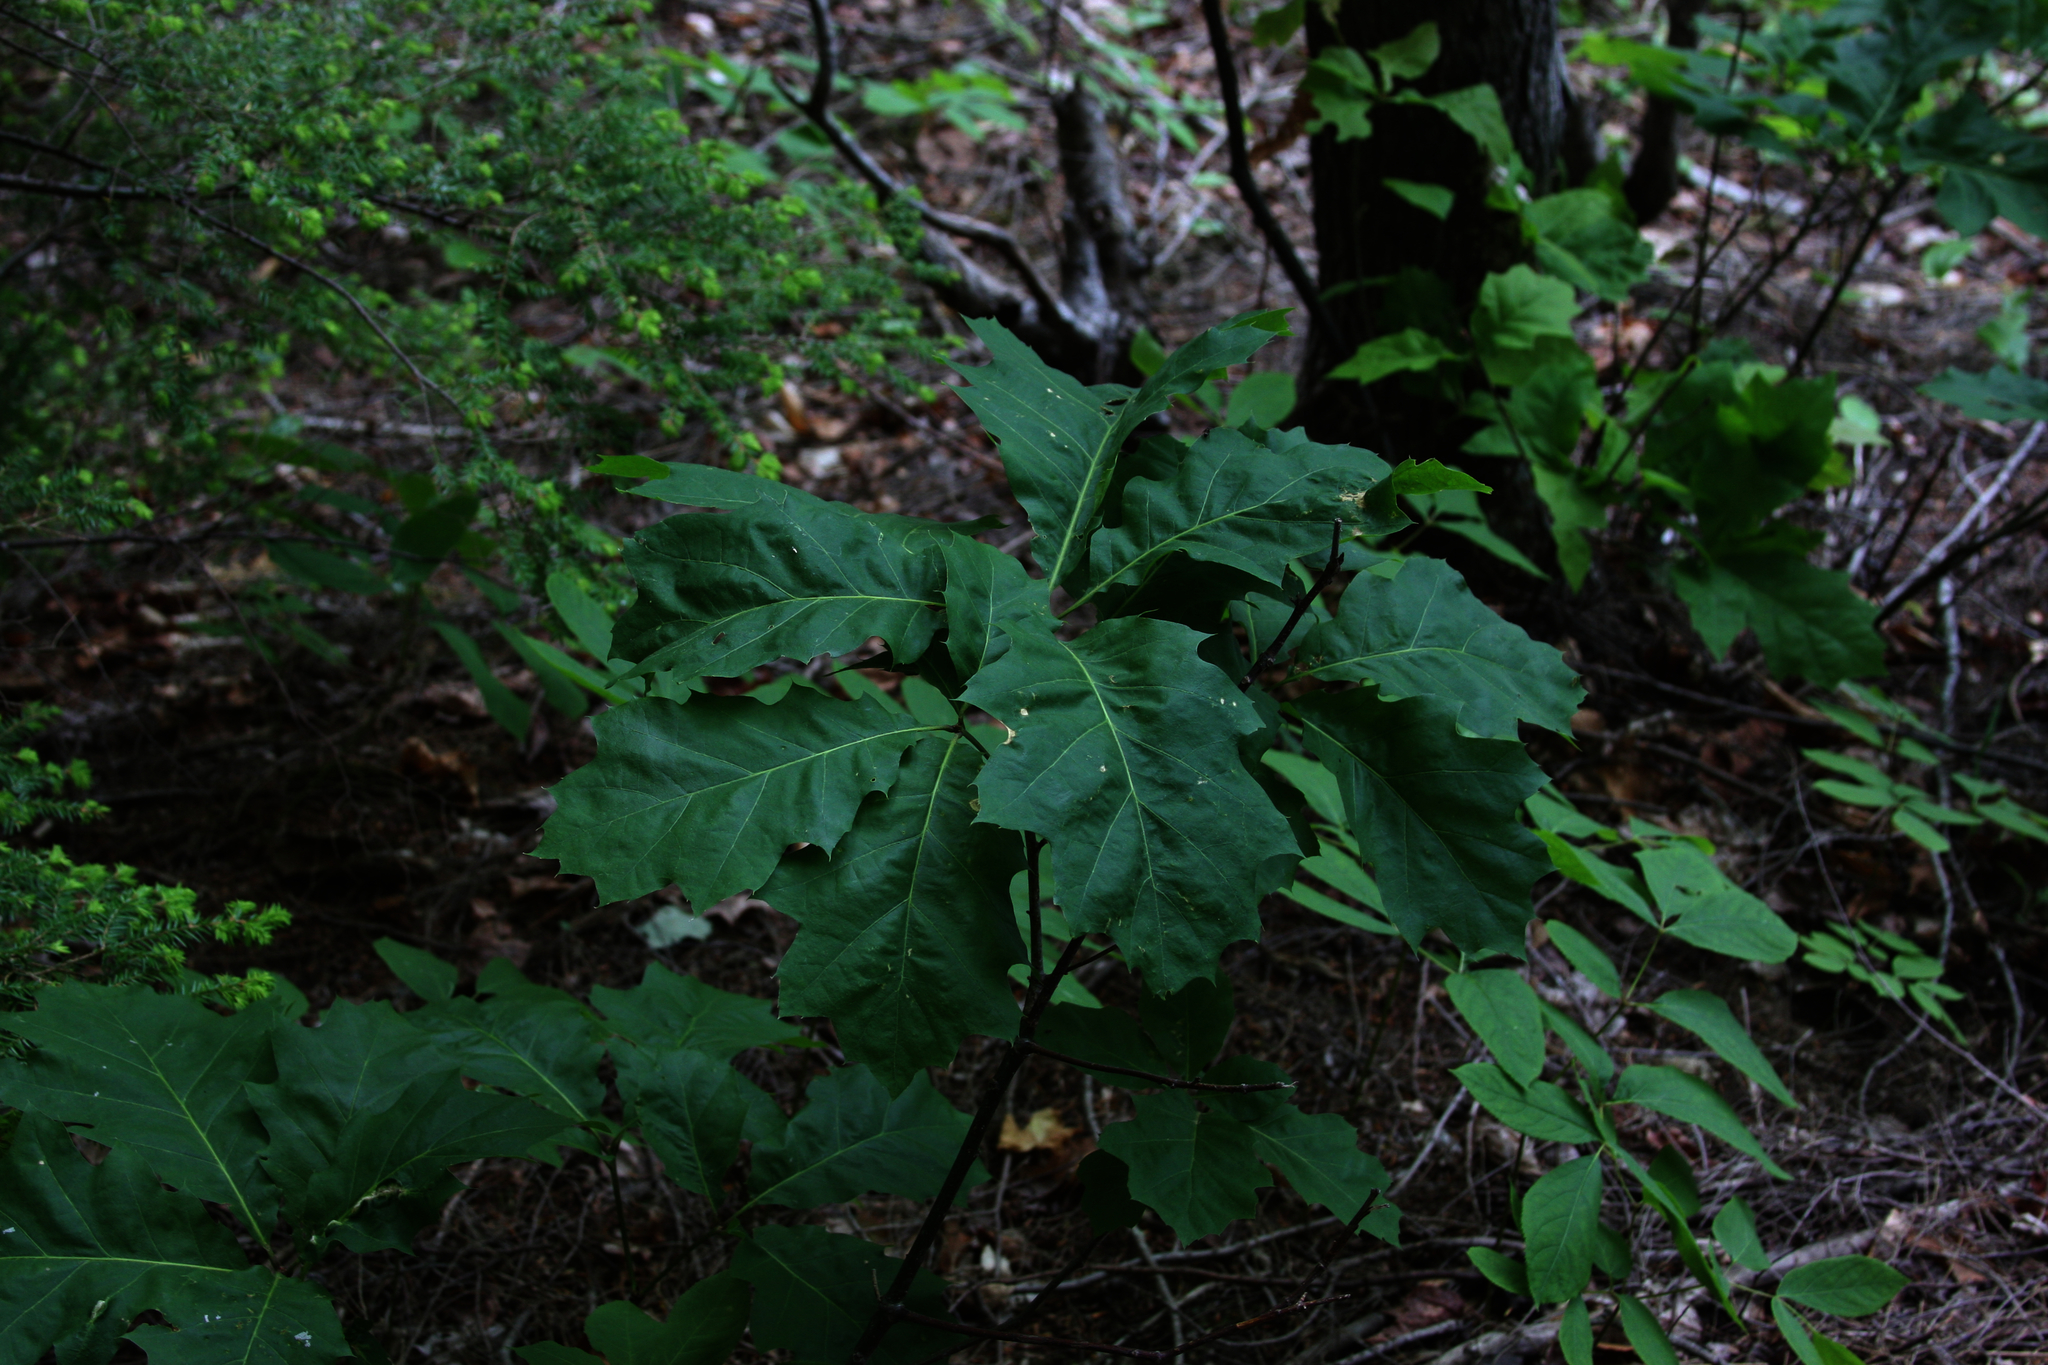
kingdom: Plantae
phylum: Tracheophyta
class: Magnoliopsida
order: Fagales
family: Fagaceae
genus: Quercus
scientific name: Quercus rubra
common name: Red oak
